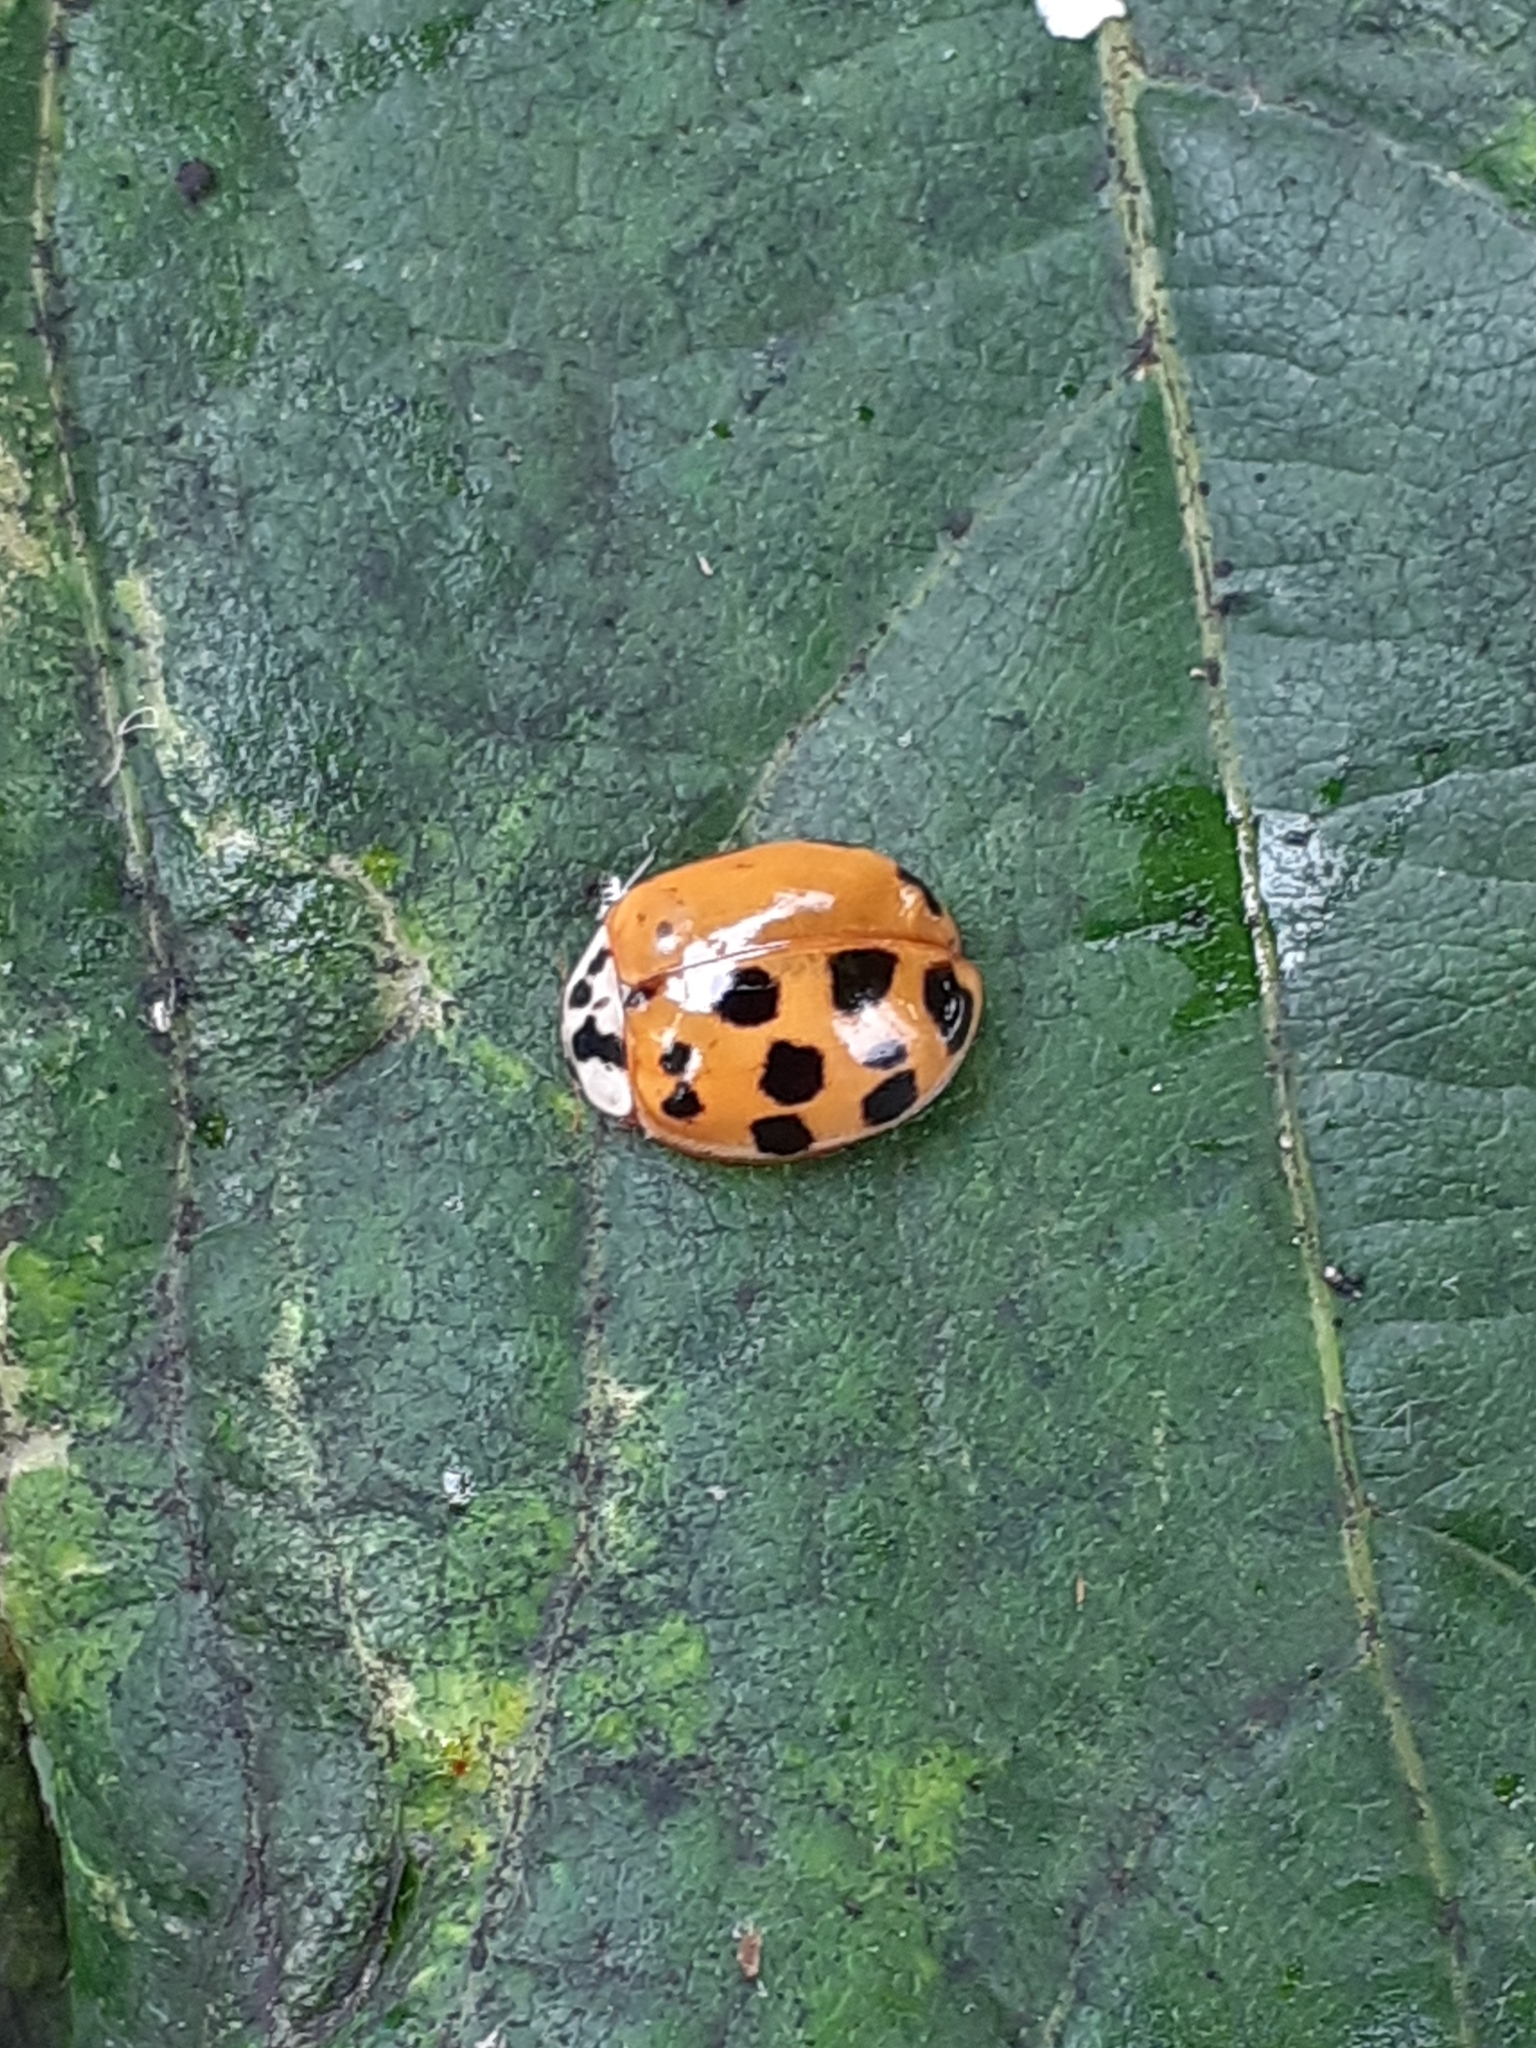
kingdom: Animalia
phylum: Arthropoda
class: Insecta
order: Coleoptera
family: Coccinellidae
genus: Harmonia
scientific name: Harmonia axyridis
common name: Harlequin ladybird
